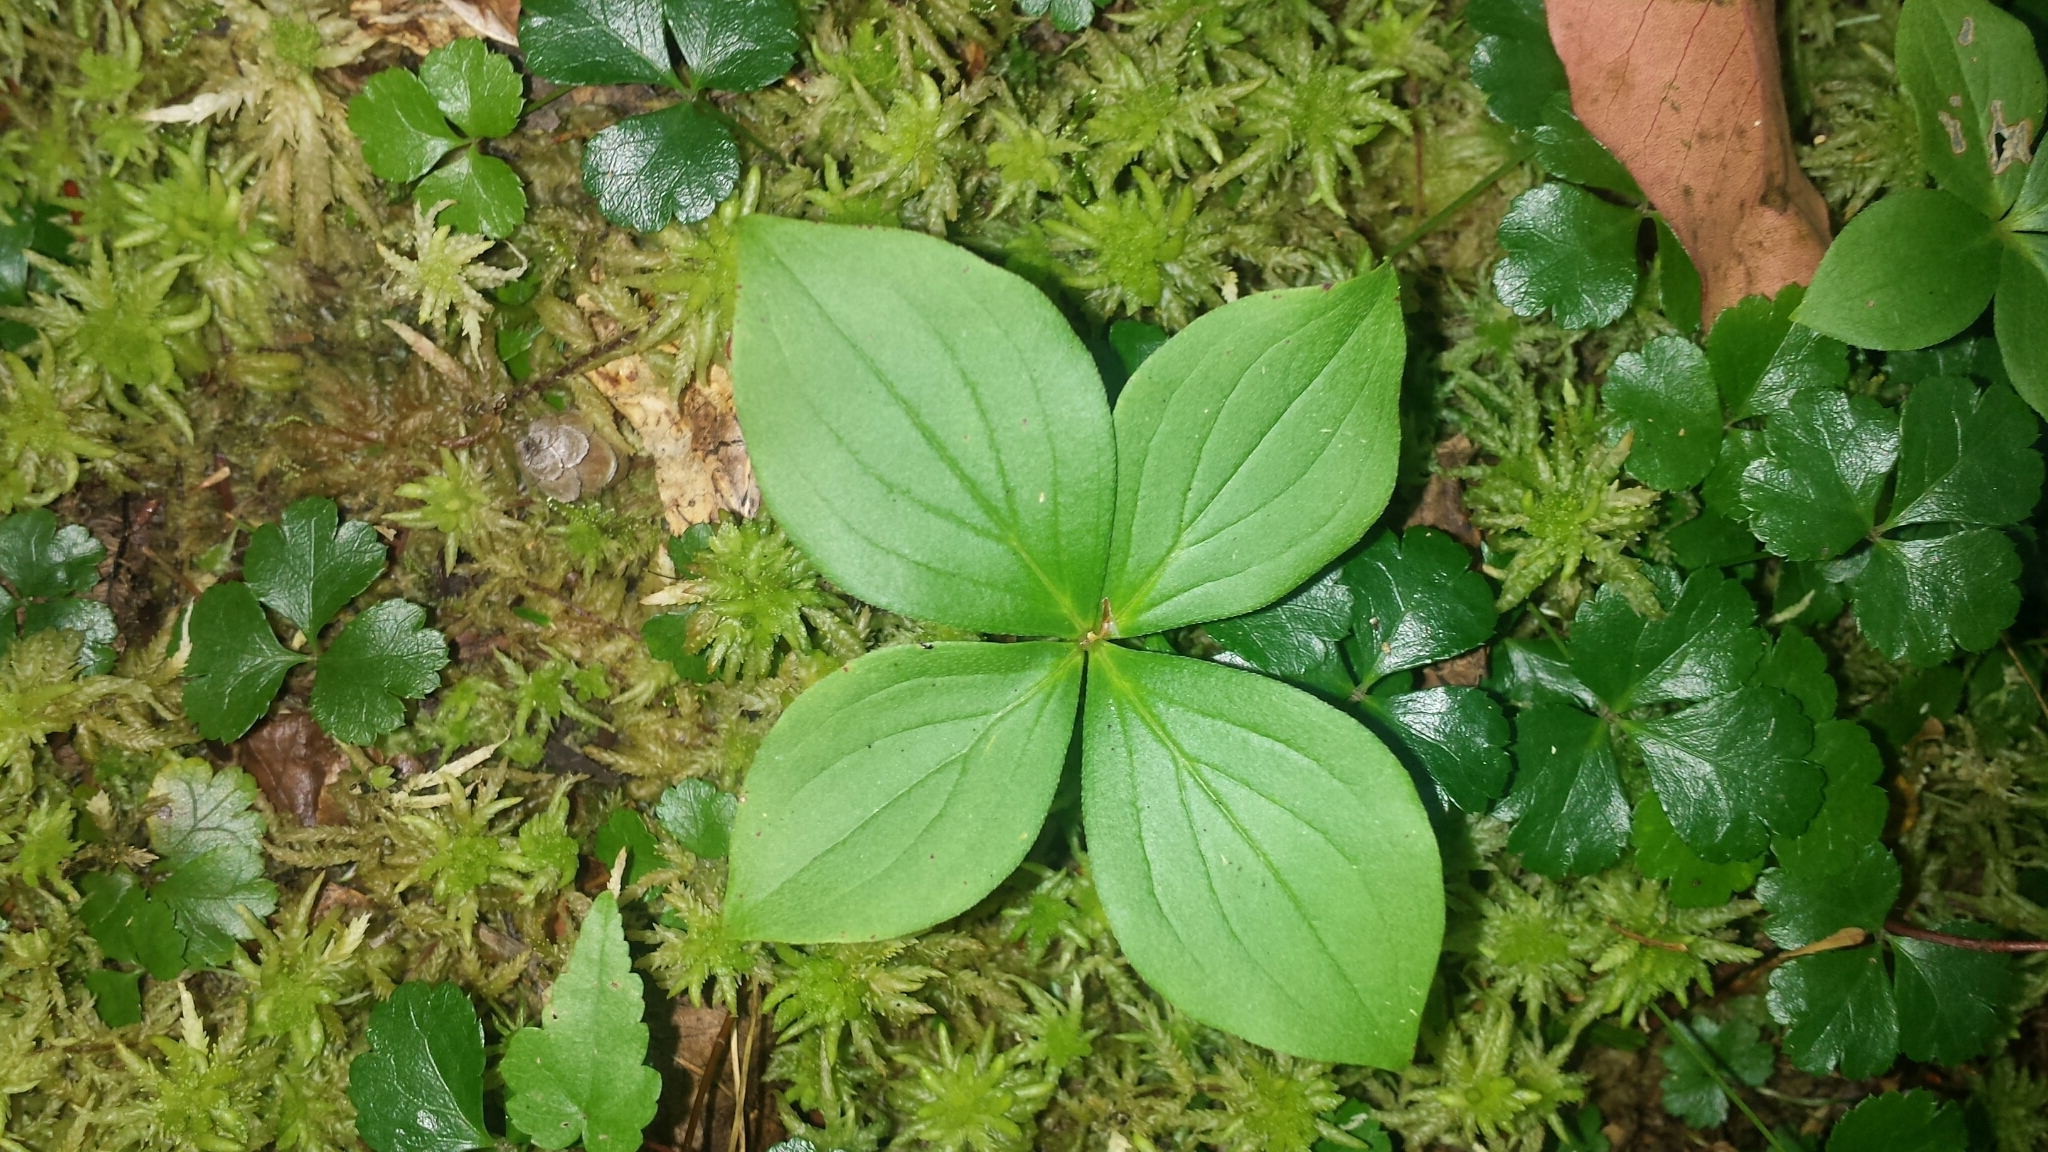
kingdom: Plantae
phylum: Tracheophyta
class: Magnoliopsida
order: Cornales
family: Cornaceae
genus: Cornus
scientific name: Cornus canadensis
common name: Creeping dogwood
